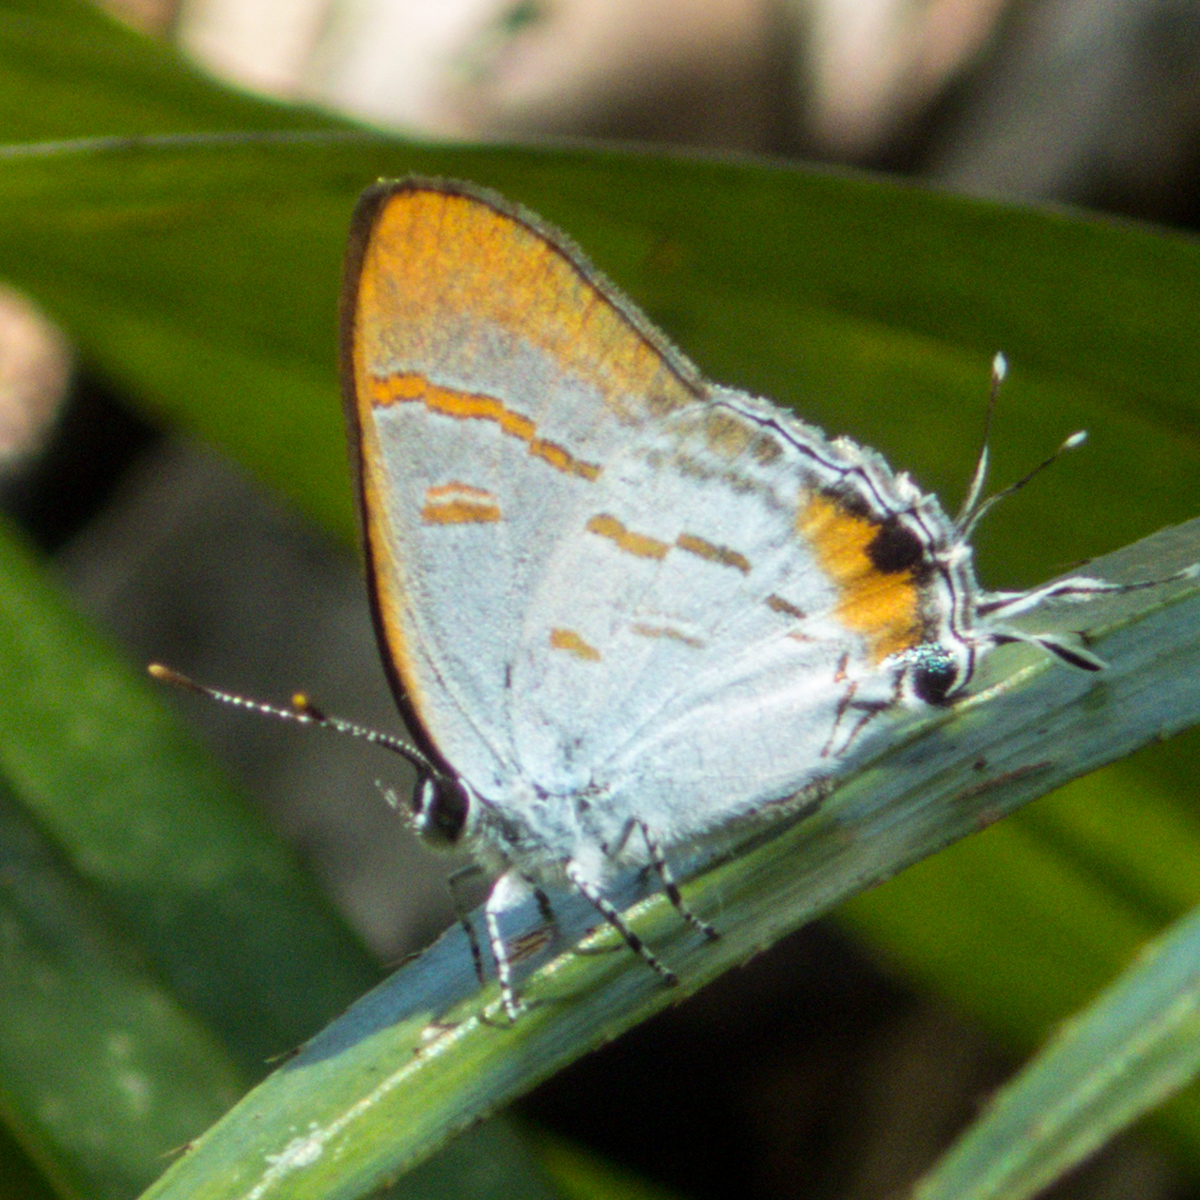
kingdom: Animalia
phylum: Arthropoda
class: Insecta
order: Lepidoptera
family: Lycaenidae
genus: Hypolycaena
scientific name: Hypolycaena thecloides
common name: Dark tit
